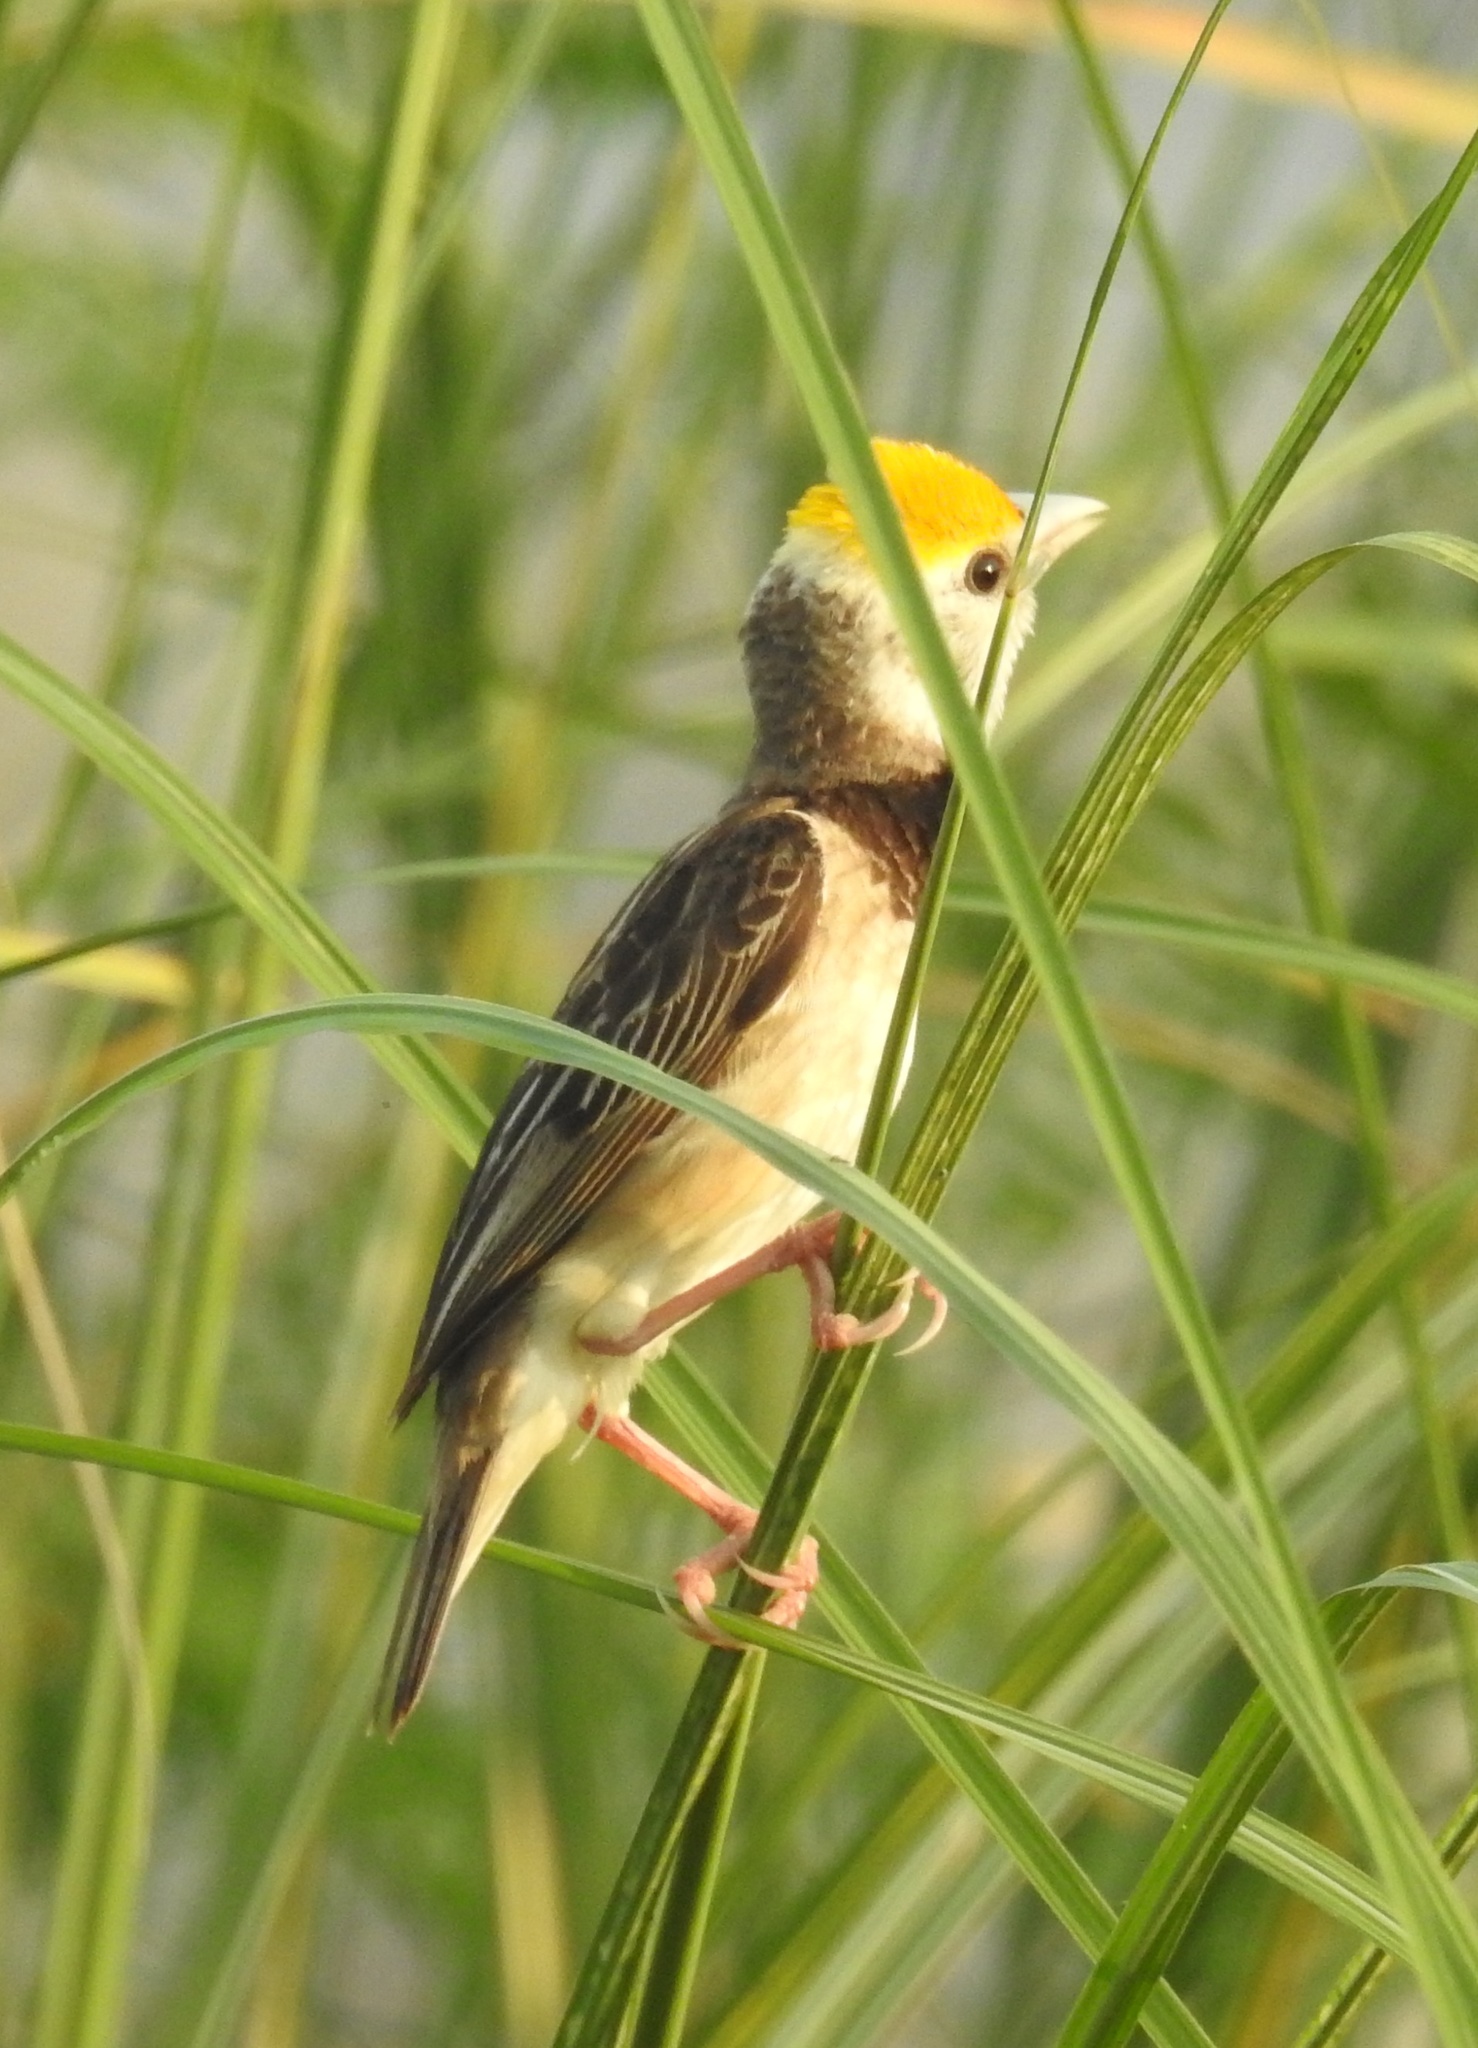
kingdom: Animalia
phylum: Chordata
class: Aves
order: Passeriformes
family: Ploceidae
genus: Ploceus
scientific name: Ploceus benghalensis
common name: Black-breasted weaver
